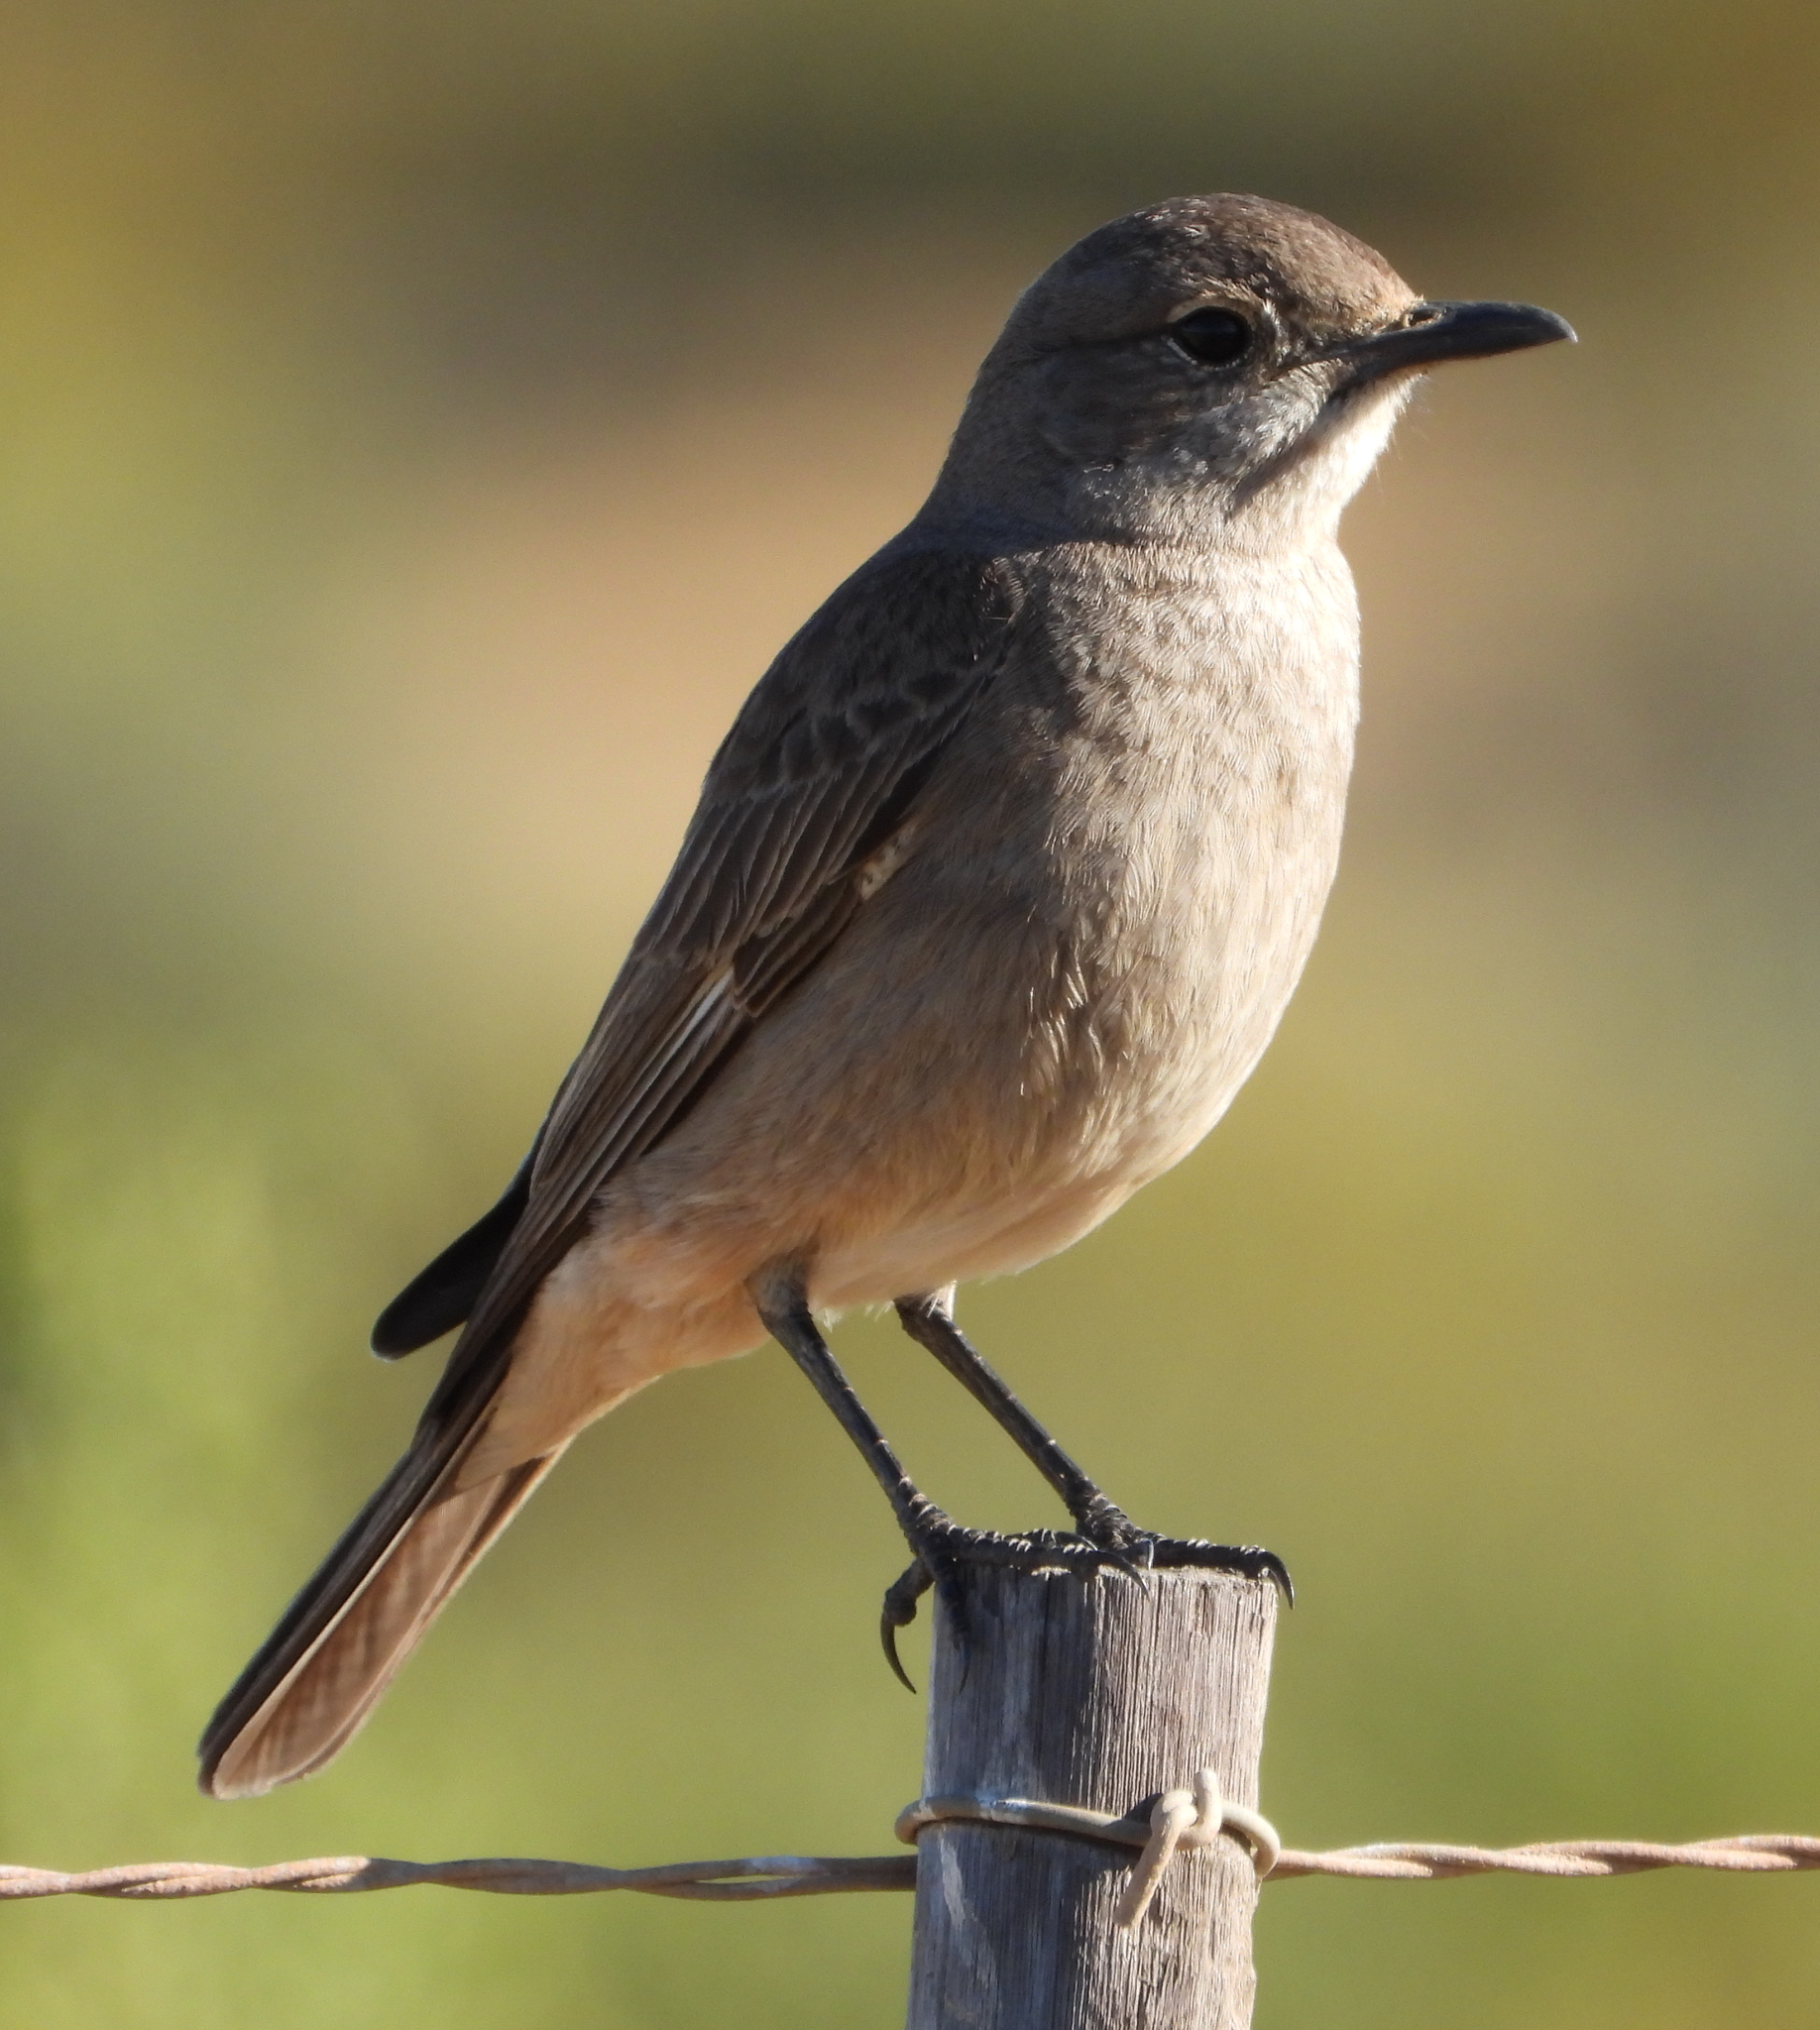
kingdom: Animalia
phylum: Chordata
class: Aves
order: Passeriformes
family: Muscicapidae
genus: Emarginata
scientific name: Emarginata sinuata
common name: Sickle-winged chat
